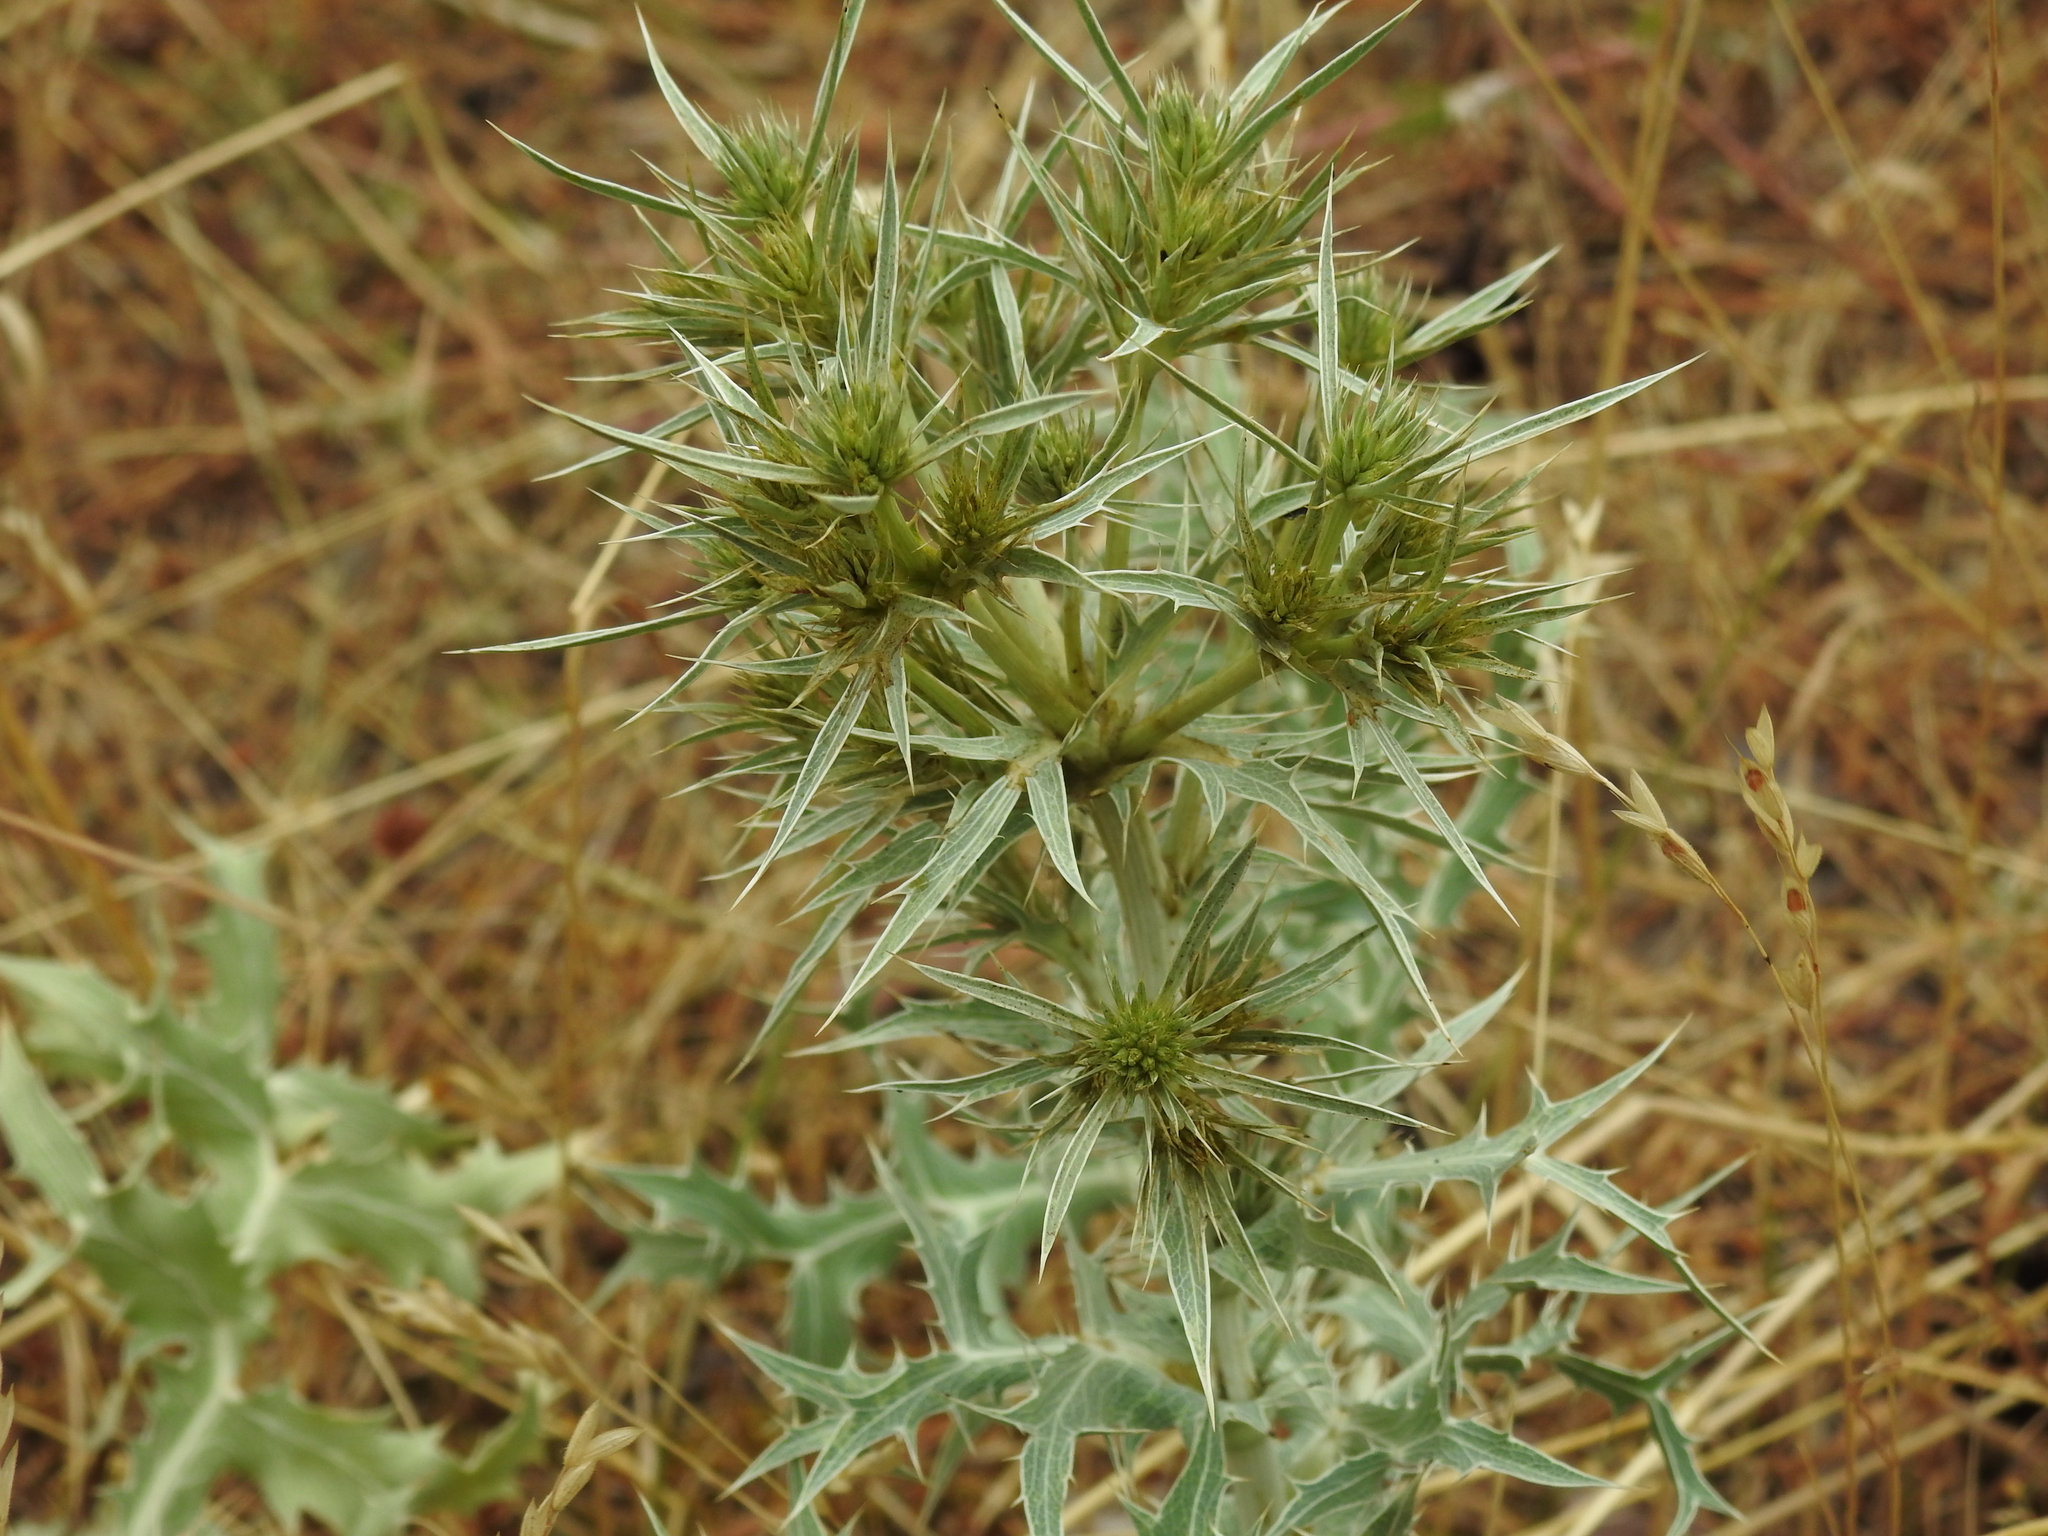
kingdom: Plantae
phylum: Tracheophyta
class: Magnoliopsida
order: Apiales
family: Apiaceae
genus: Eryngium
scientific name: Eryngium campestre
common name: Field eryngo
